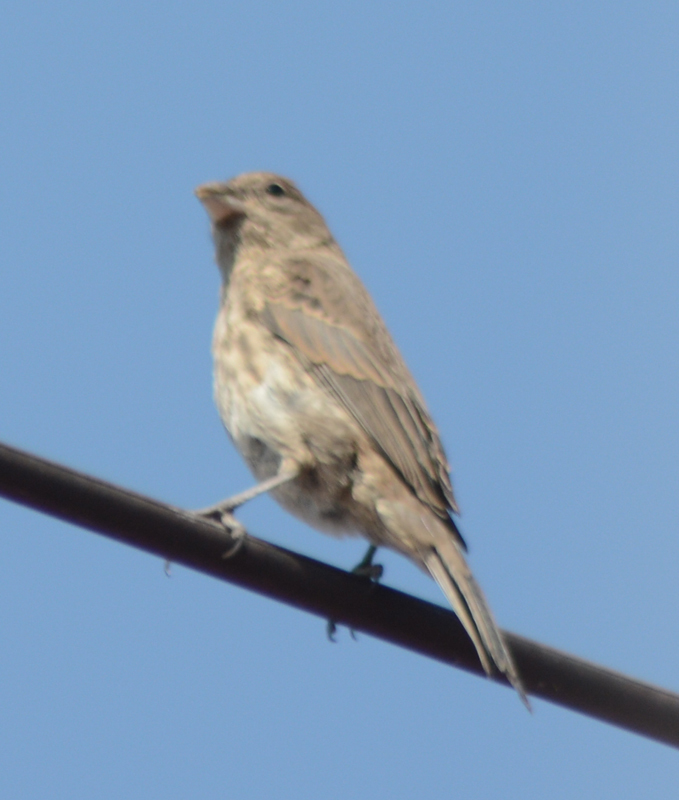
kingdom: Animalia
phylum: Chordata
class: Aves
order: Passeriformes
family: Fringillidae
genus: Haemorhous
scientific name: Haemorhous mexicanus
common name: House finch
